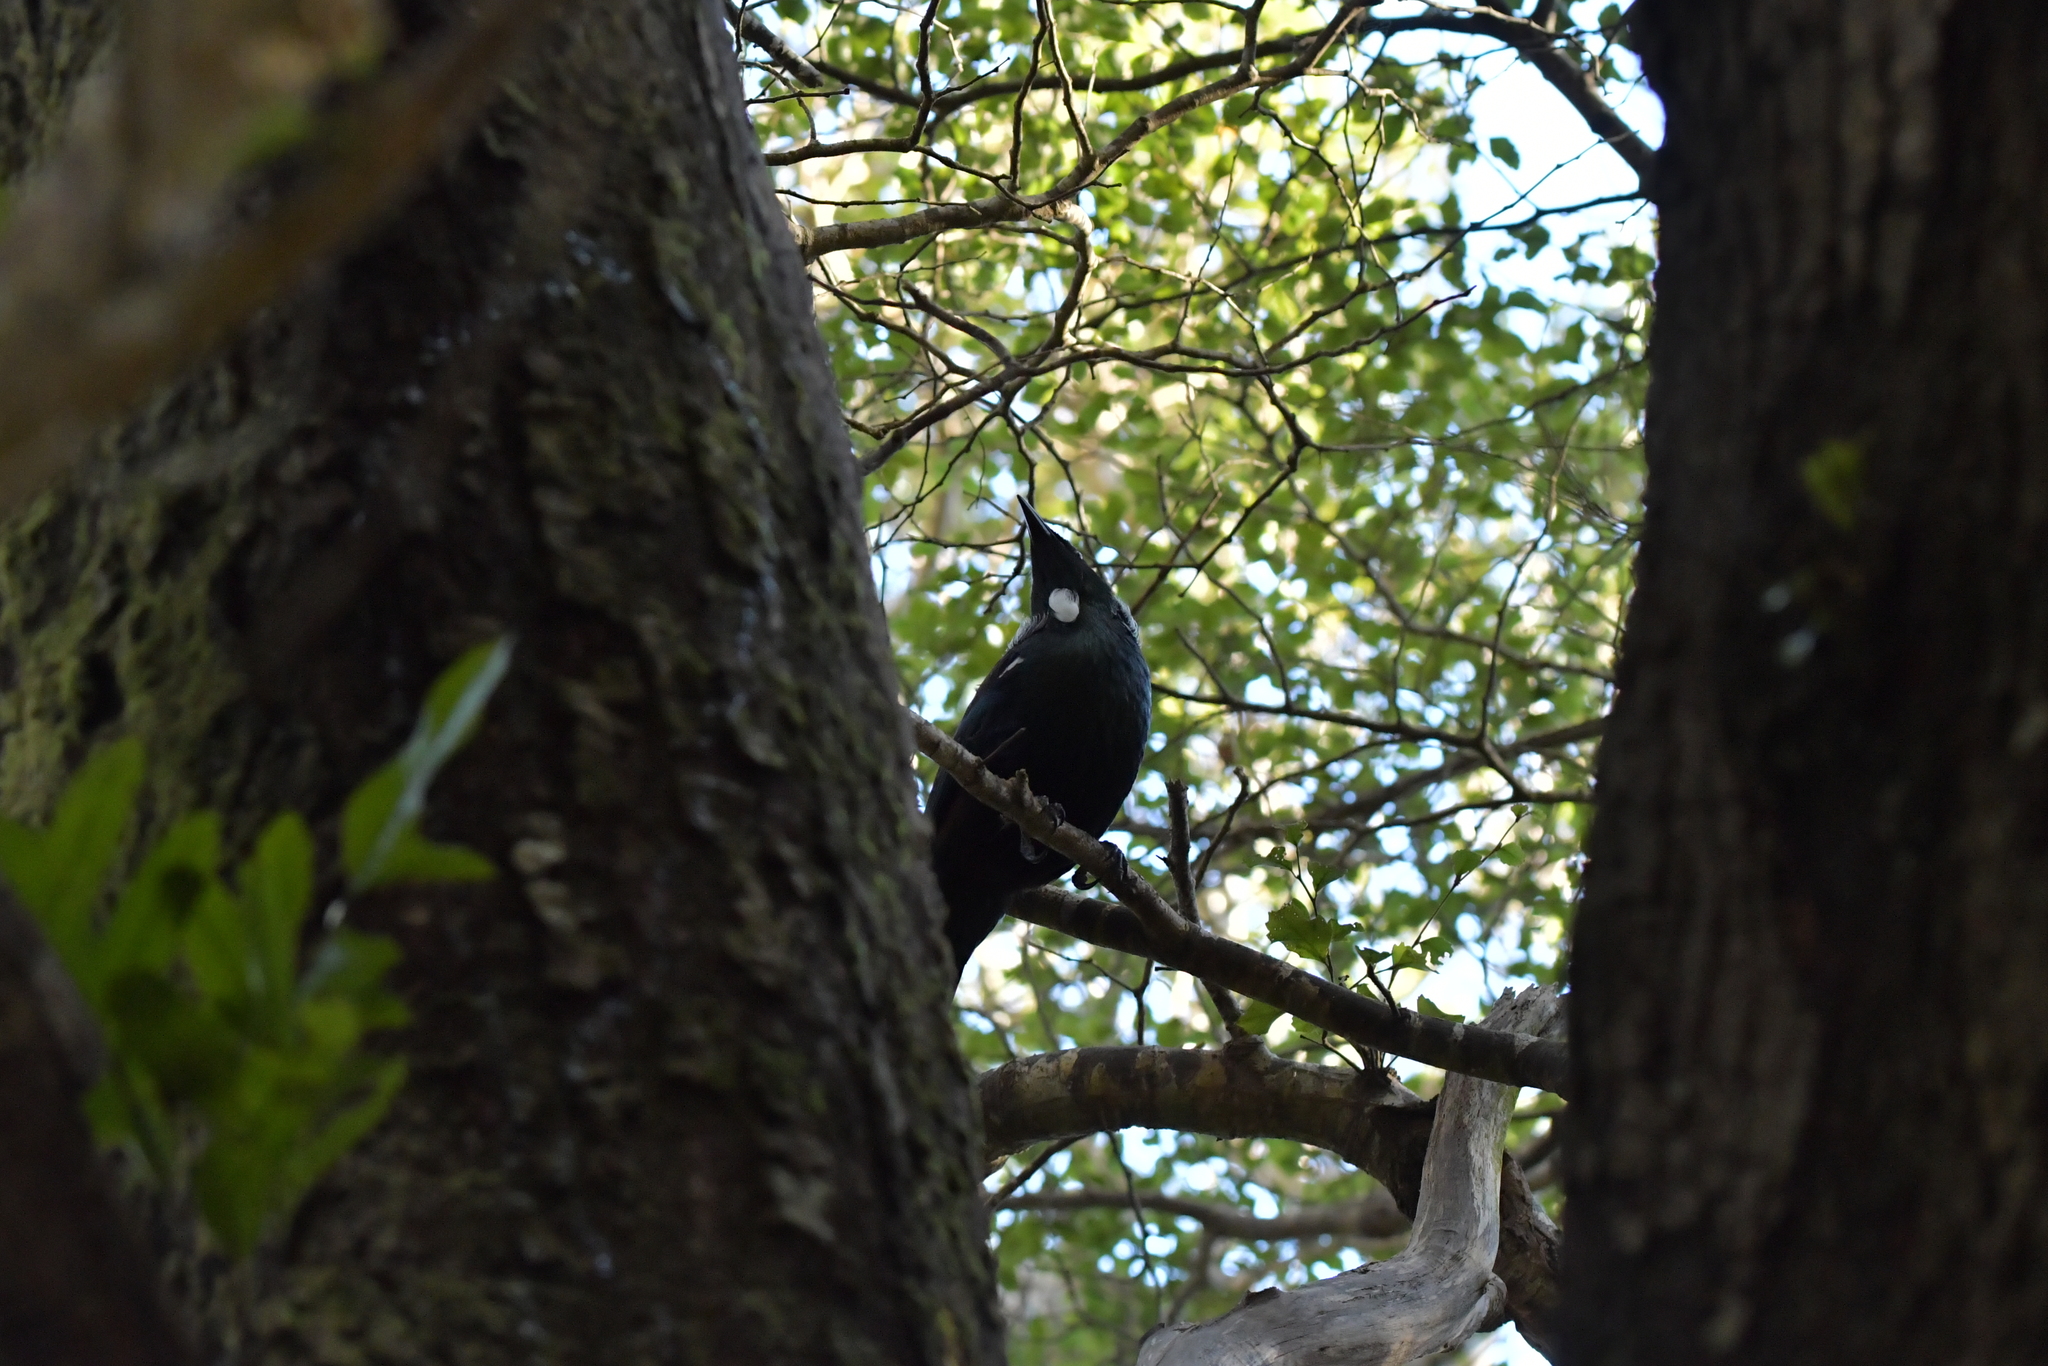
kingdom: Animalia
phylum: Chordata
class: Aves
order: Passeriformes
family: Meliphagidae
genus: Prosthemadera
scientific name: Prosthemadera novaeseelandiae
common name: Tui
